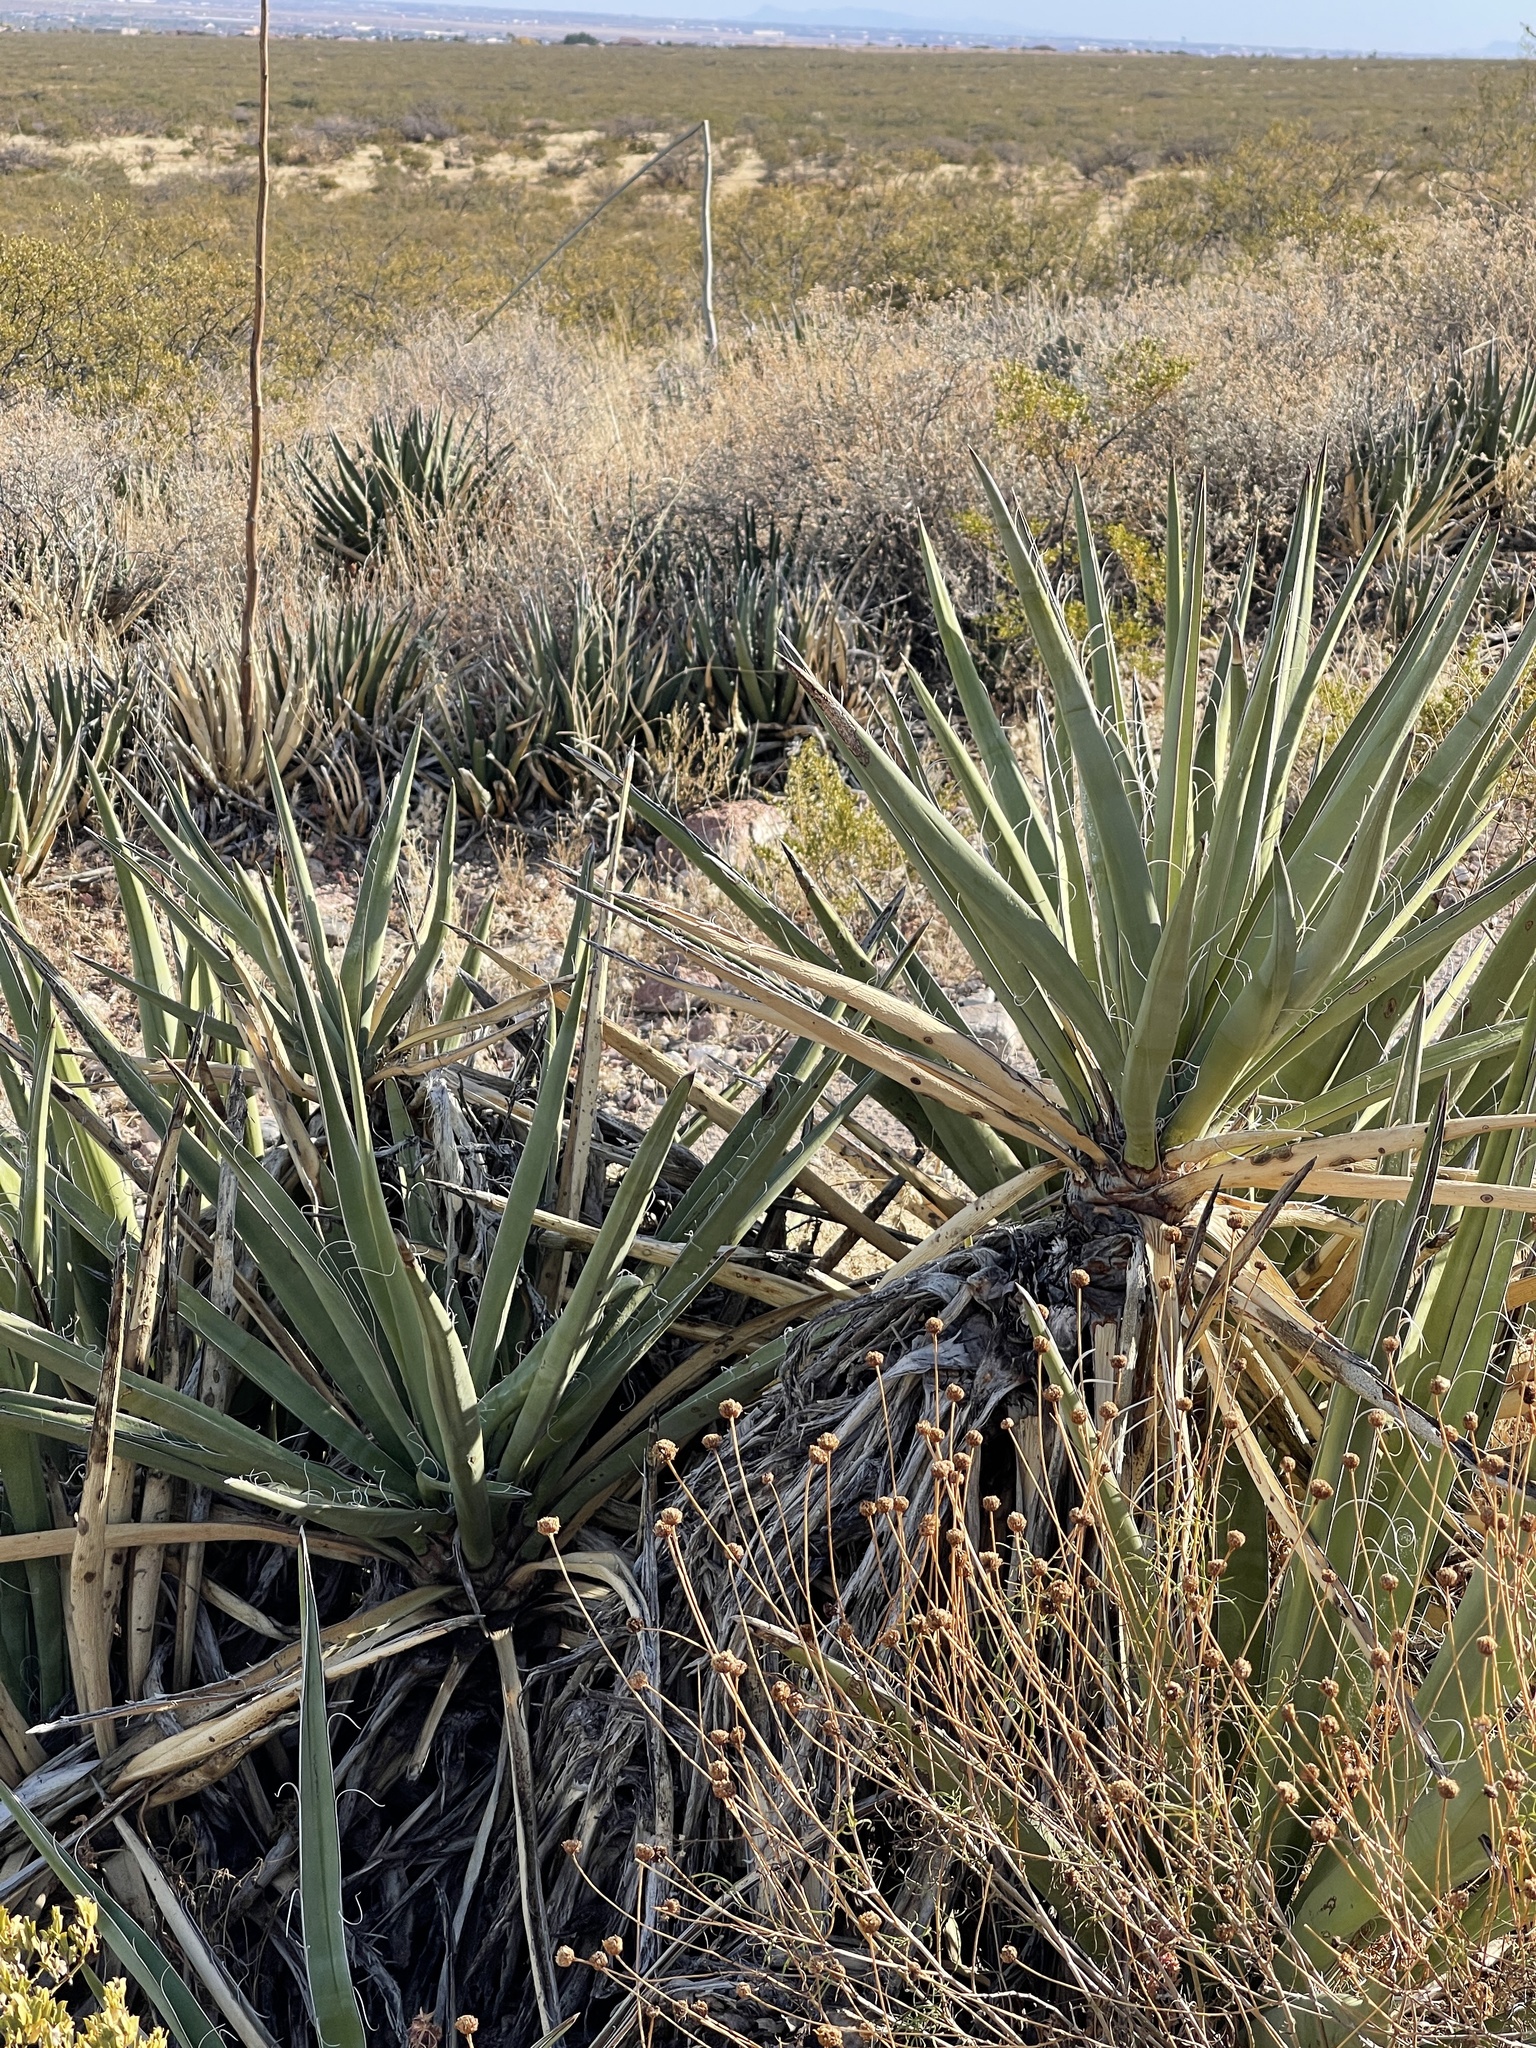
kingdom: Plantae
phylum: Tracheophyta
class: Liliopsida
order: Asparagales
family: Asparagaceae
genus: Yucca
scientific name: Yucca baccata
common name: Banana yucca
